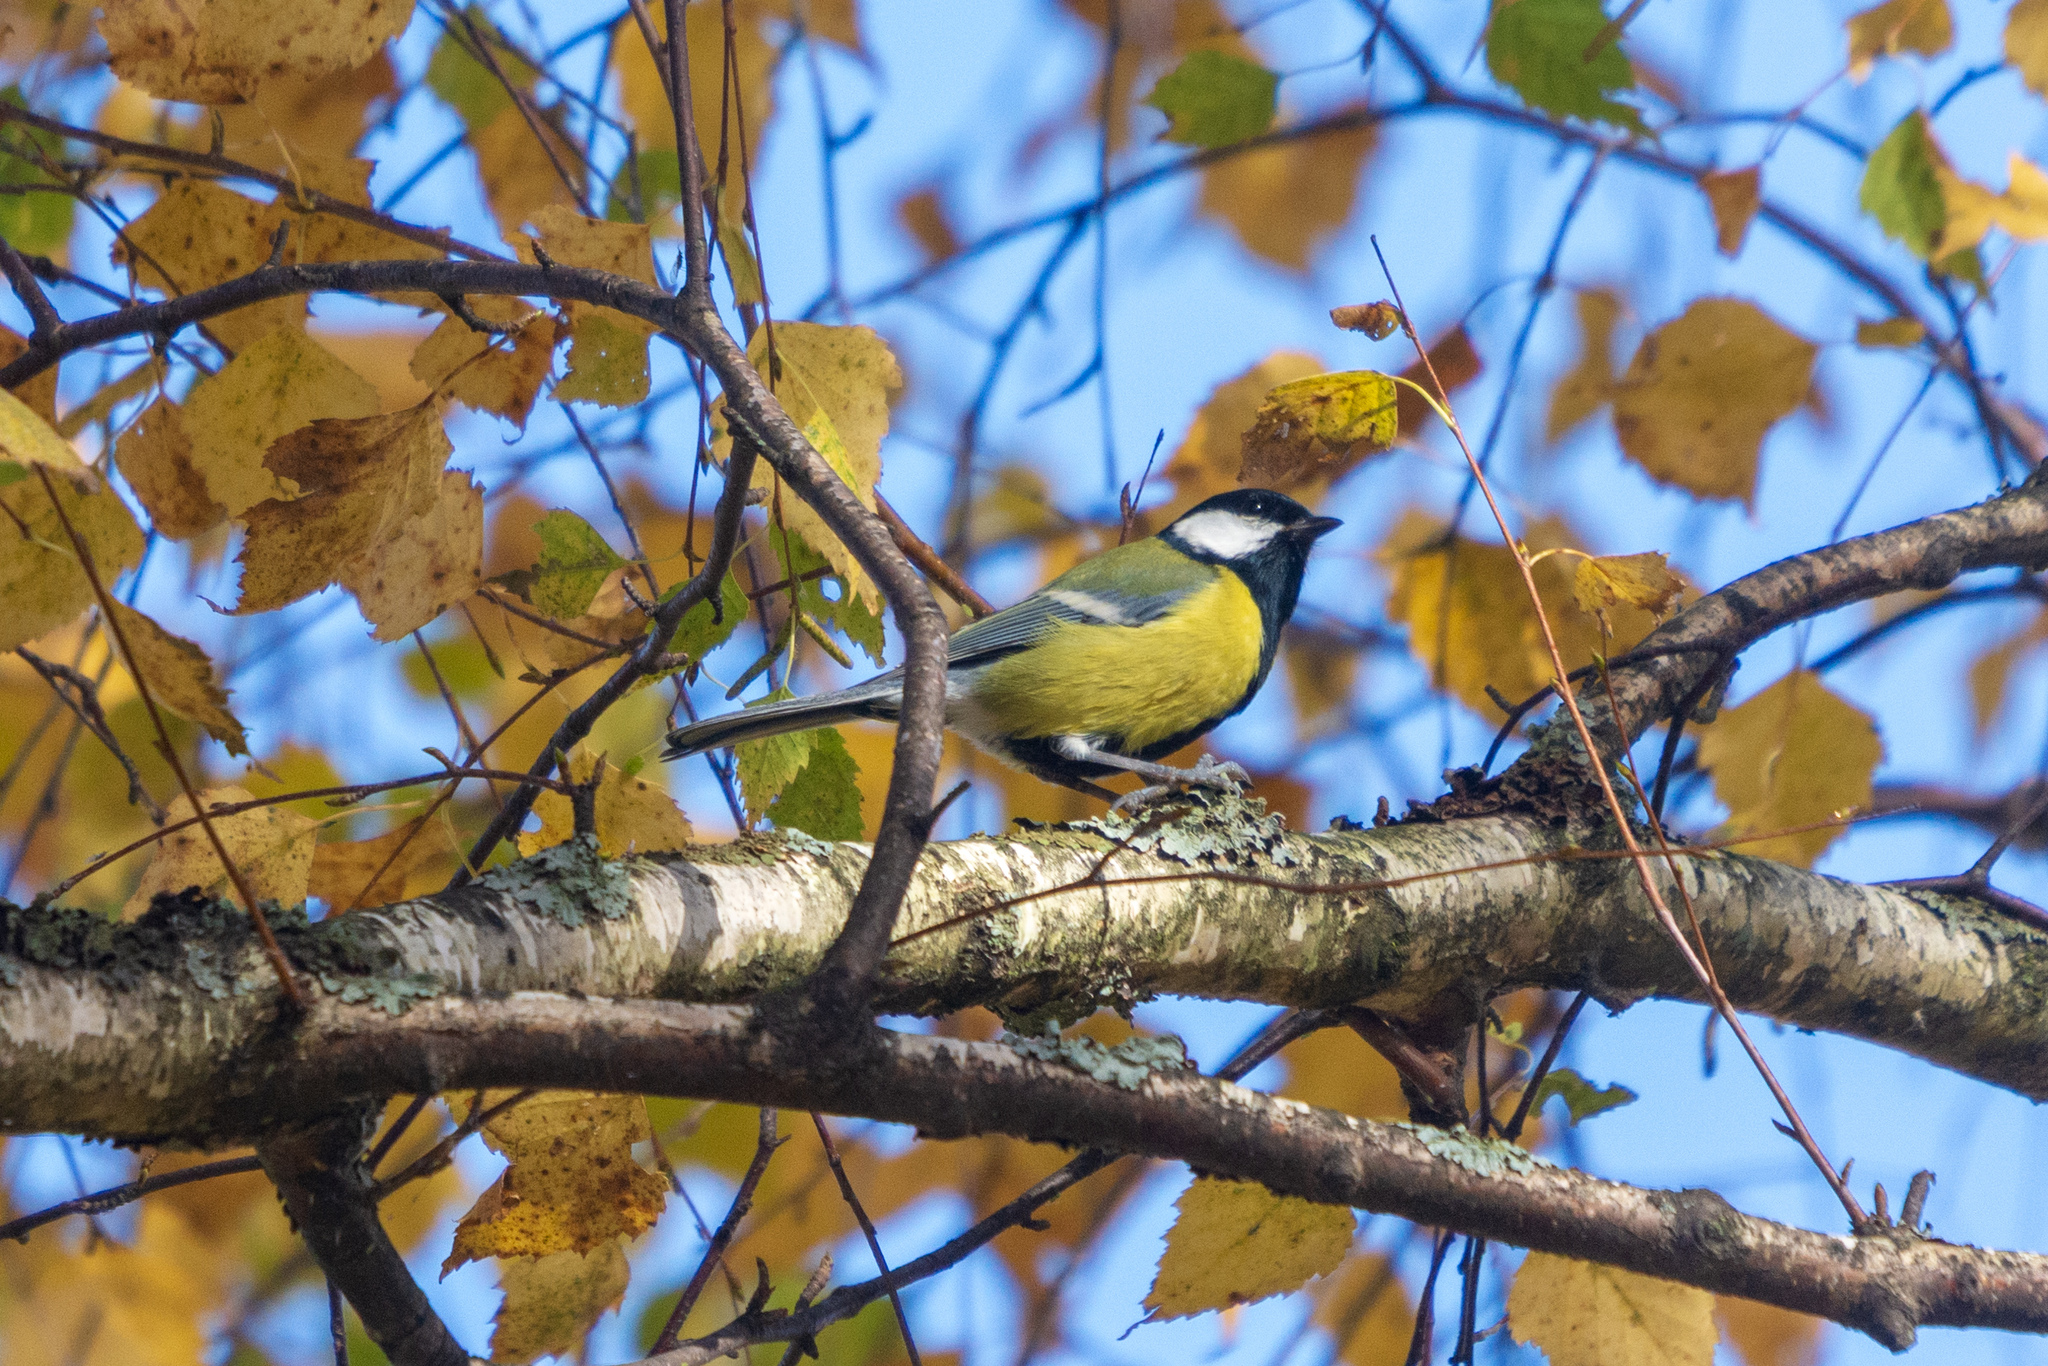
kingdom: Animalia
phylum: Chordata
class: Aves
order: Passeriformes
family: Paridae
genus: Parus
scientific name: Parus major
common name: Great tit
